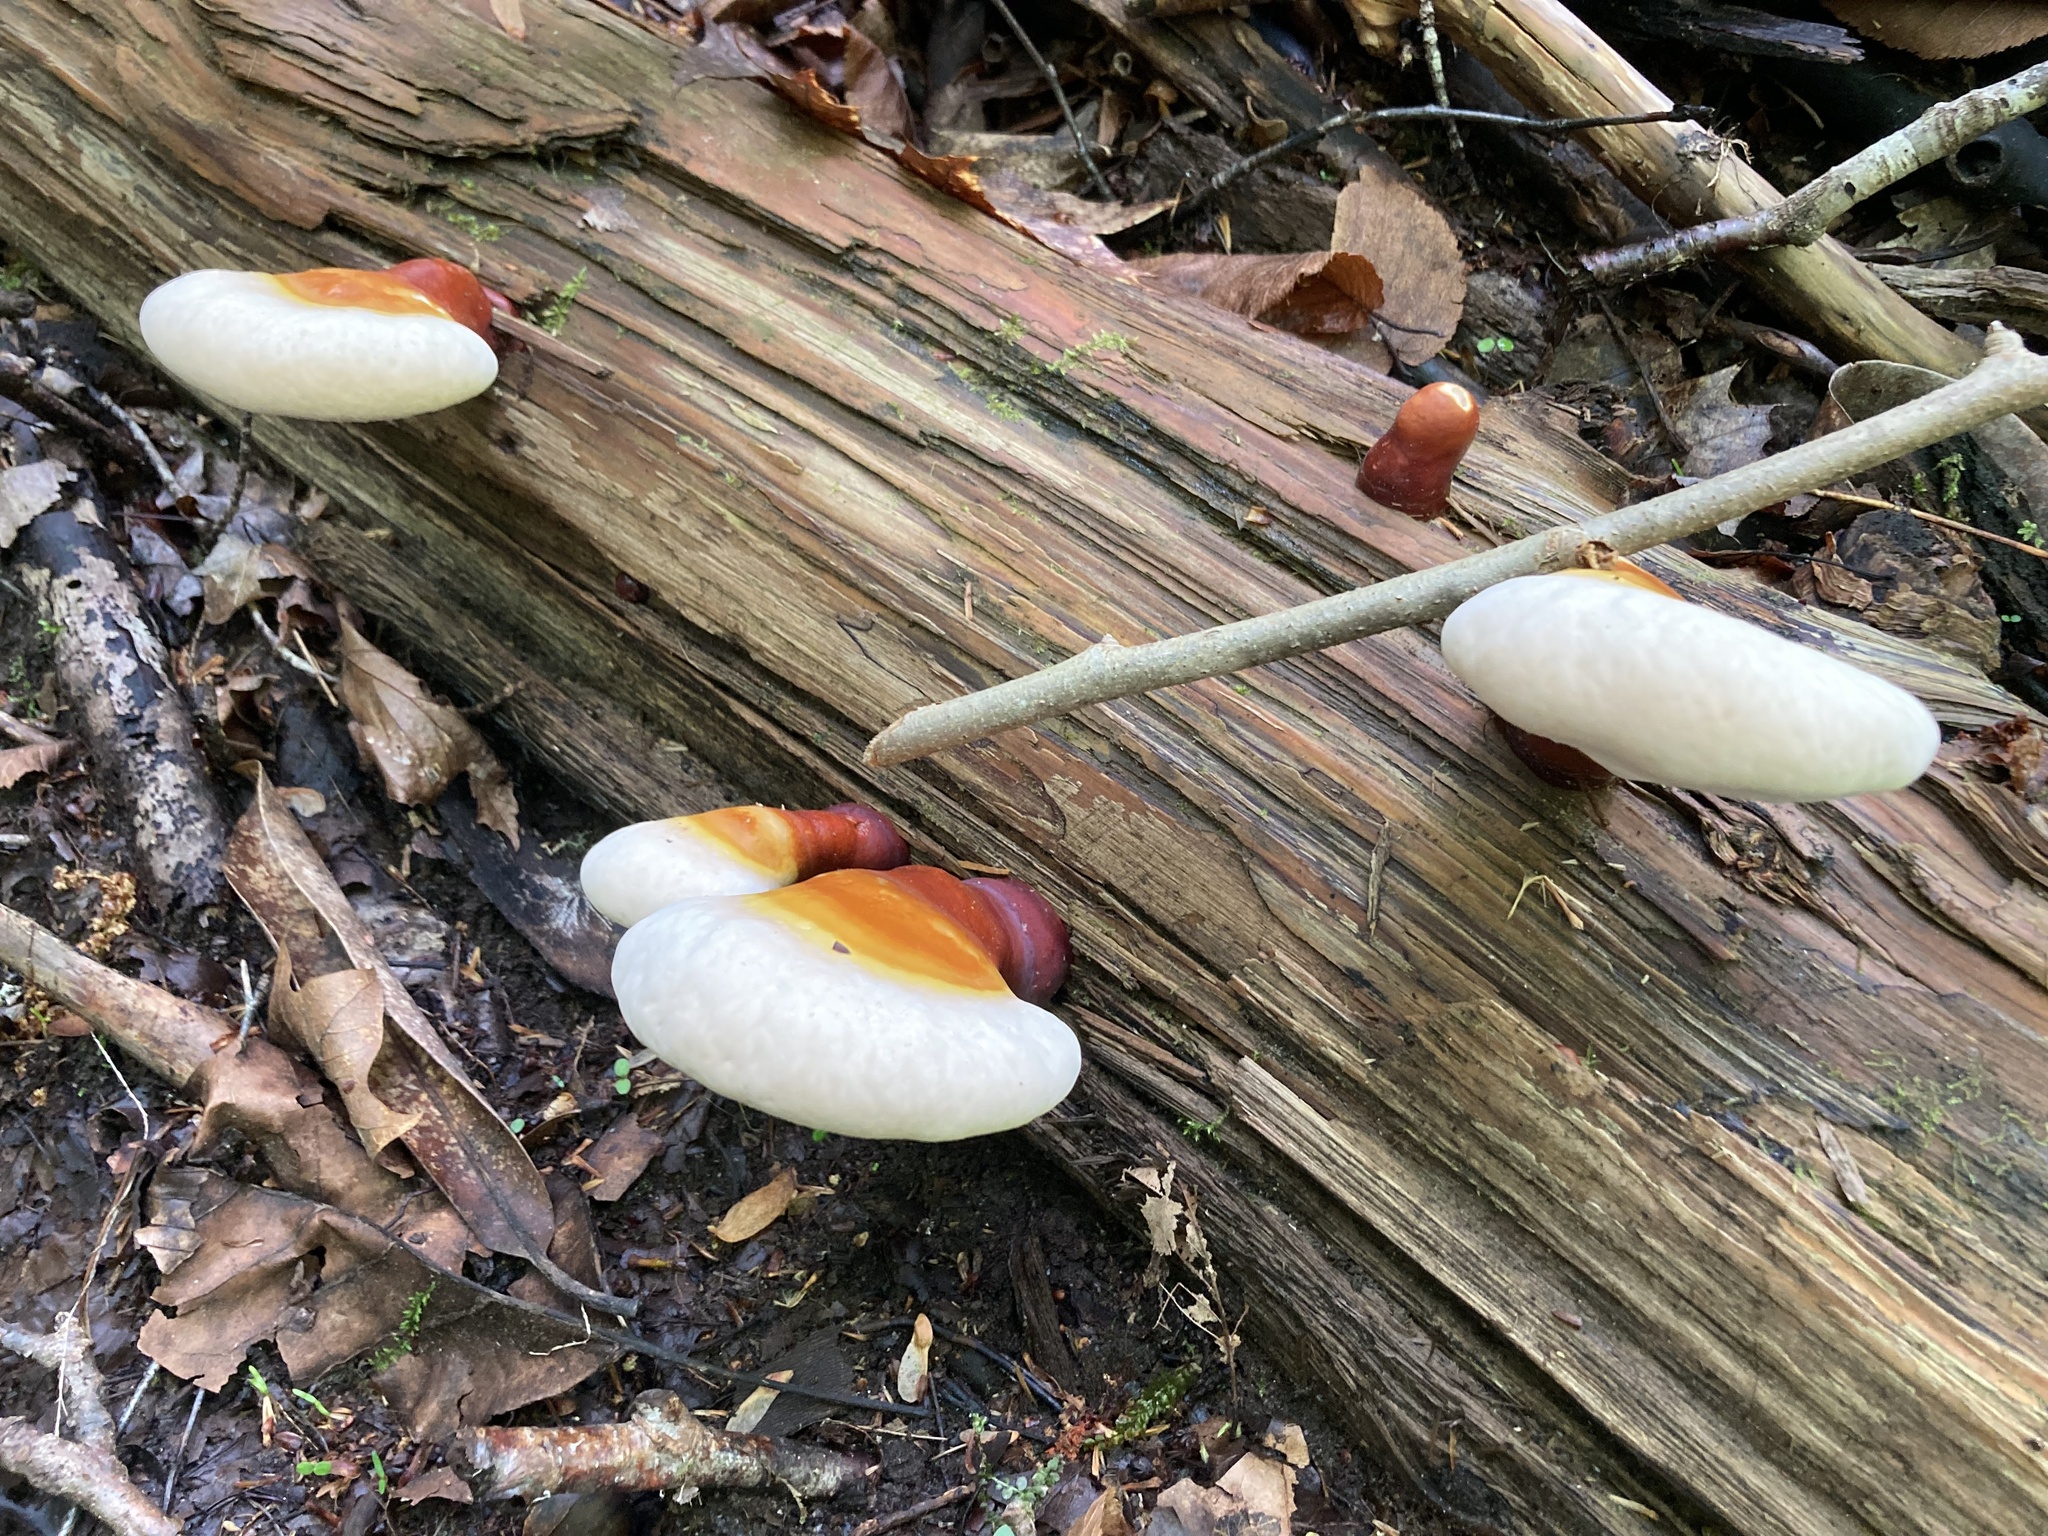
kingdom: Fungi
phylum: Basidiomycota
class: Agaricomycetes
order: Polyporales
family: Polyporaceae
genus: Ganoderma
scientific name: Ganoderma tsugae
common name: Hemlock varnish shelf
